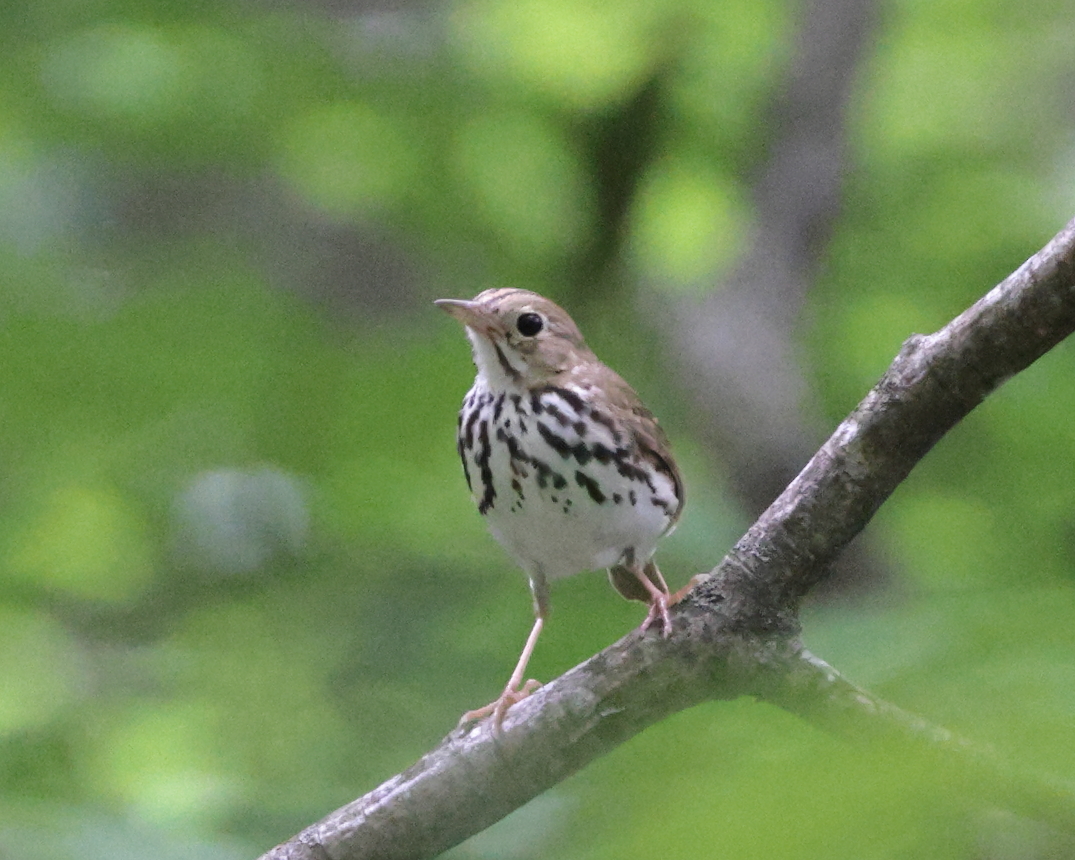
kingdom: Animalia
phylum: Chordata
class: Aves
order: Passeriformes
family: Parulidae
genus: Seiurus
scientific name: Seiurus aurocapilla
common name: Ovenbird
